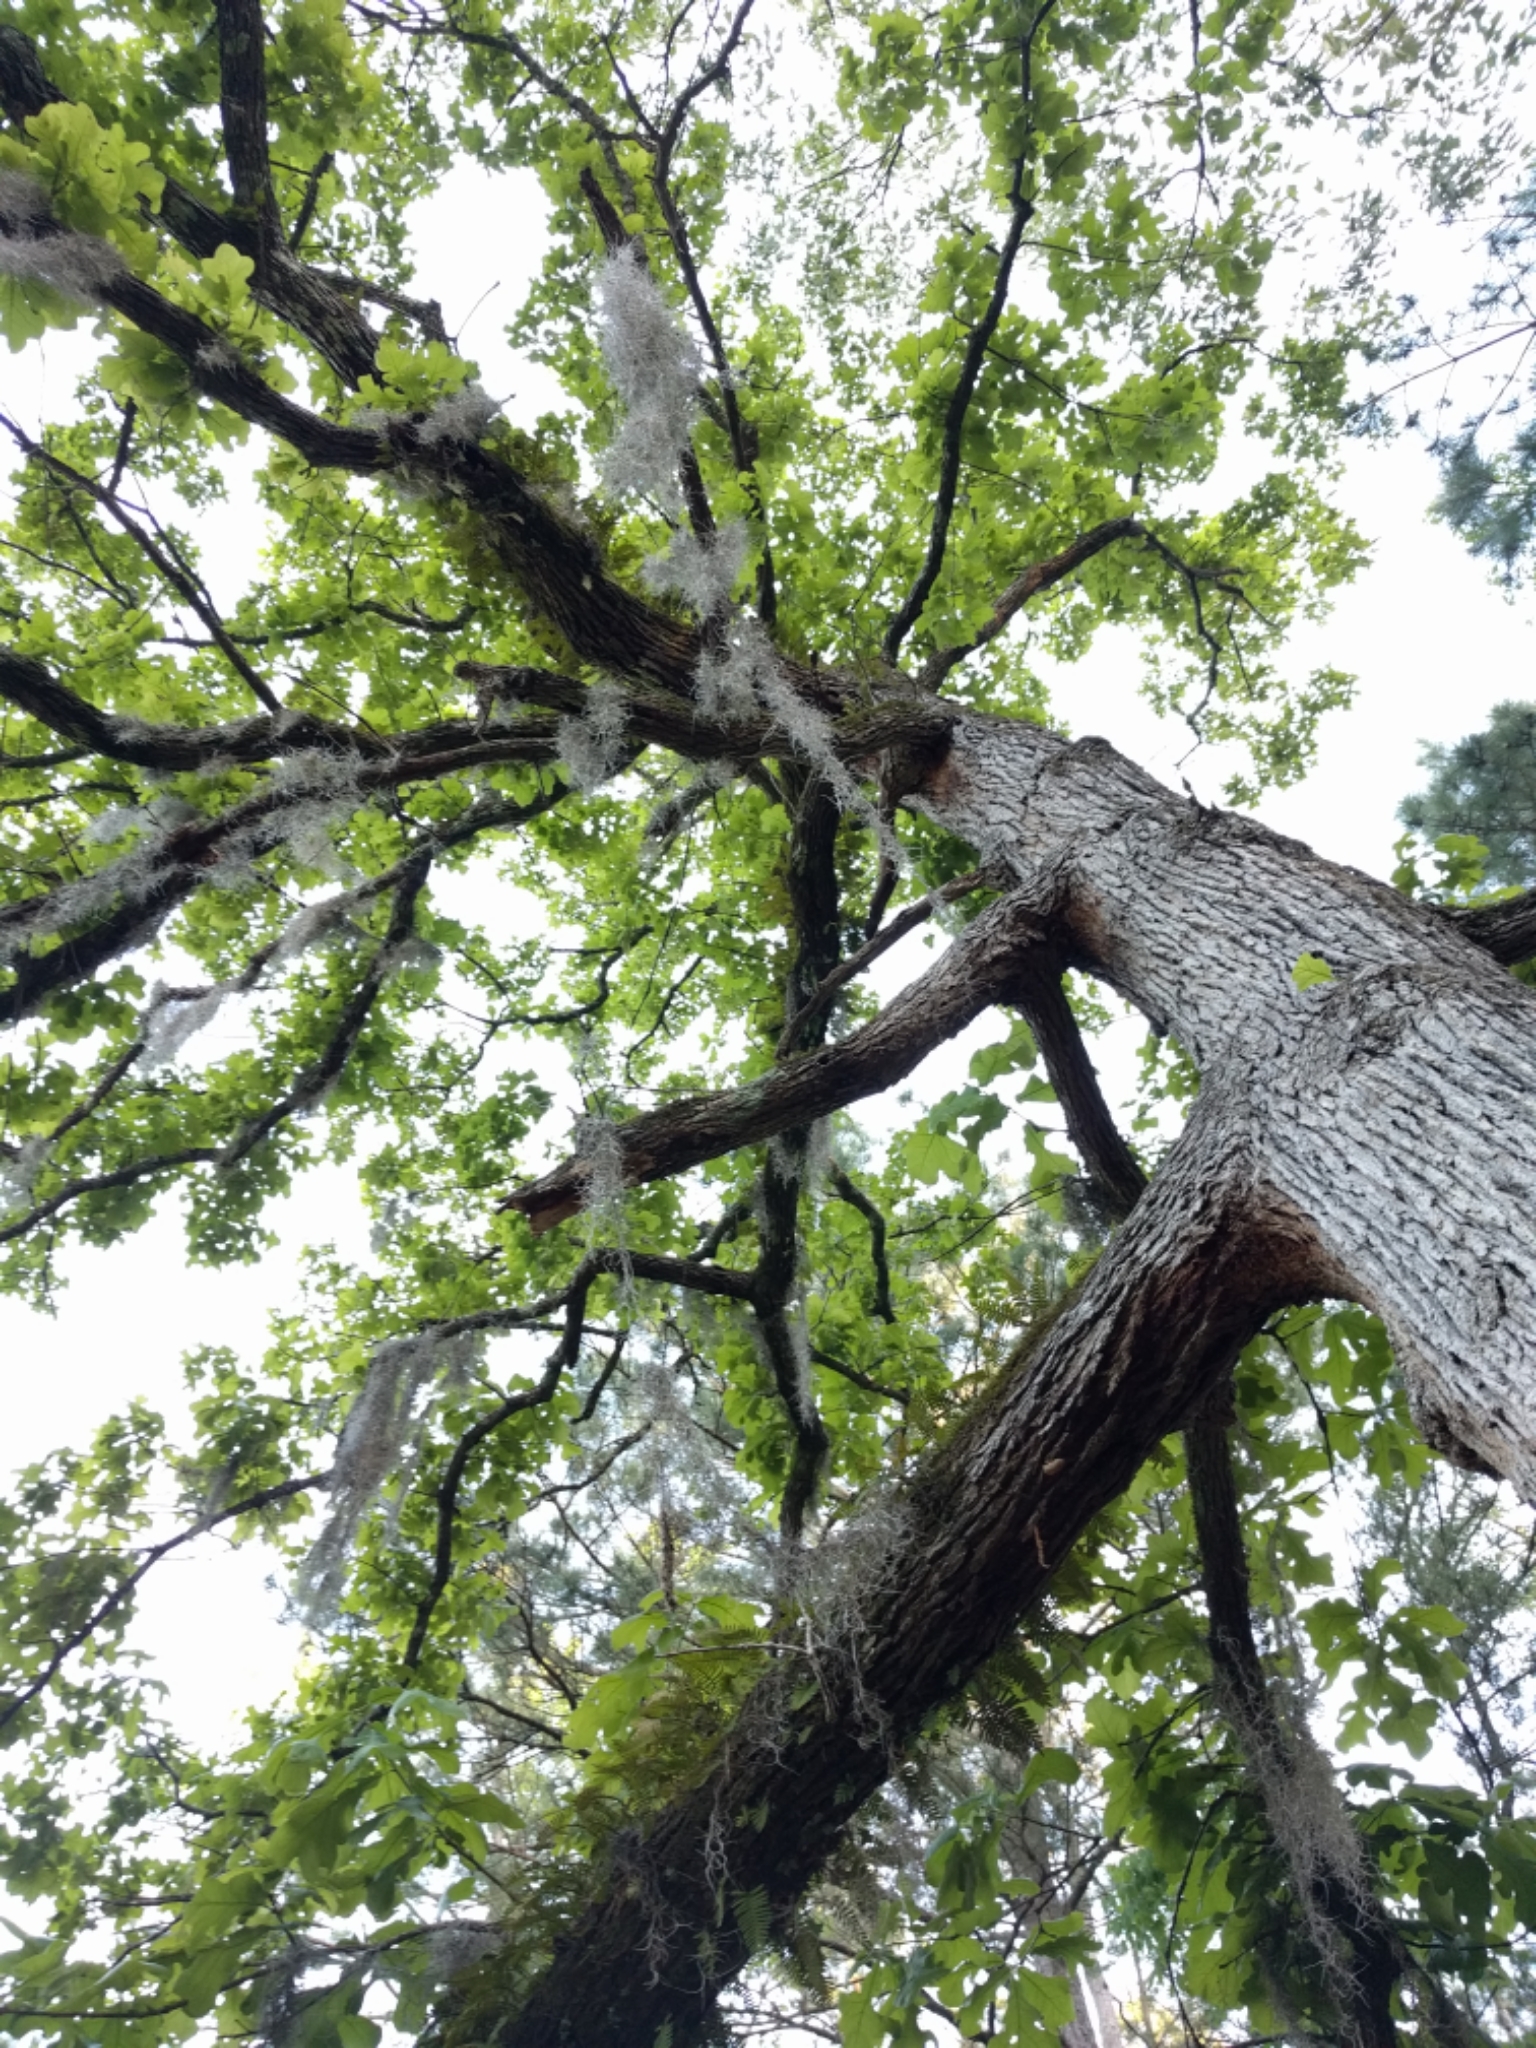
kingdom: Plantae
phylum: Tracheophyta
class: Magnoliopsida
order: Fagales
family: Fagaceae
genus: Quercus
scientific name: Quercus stellata
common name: Post oak
